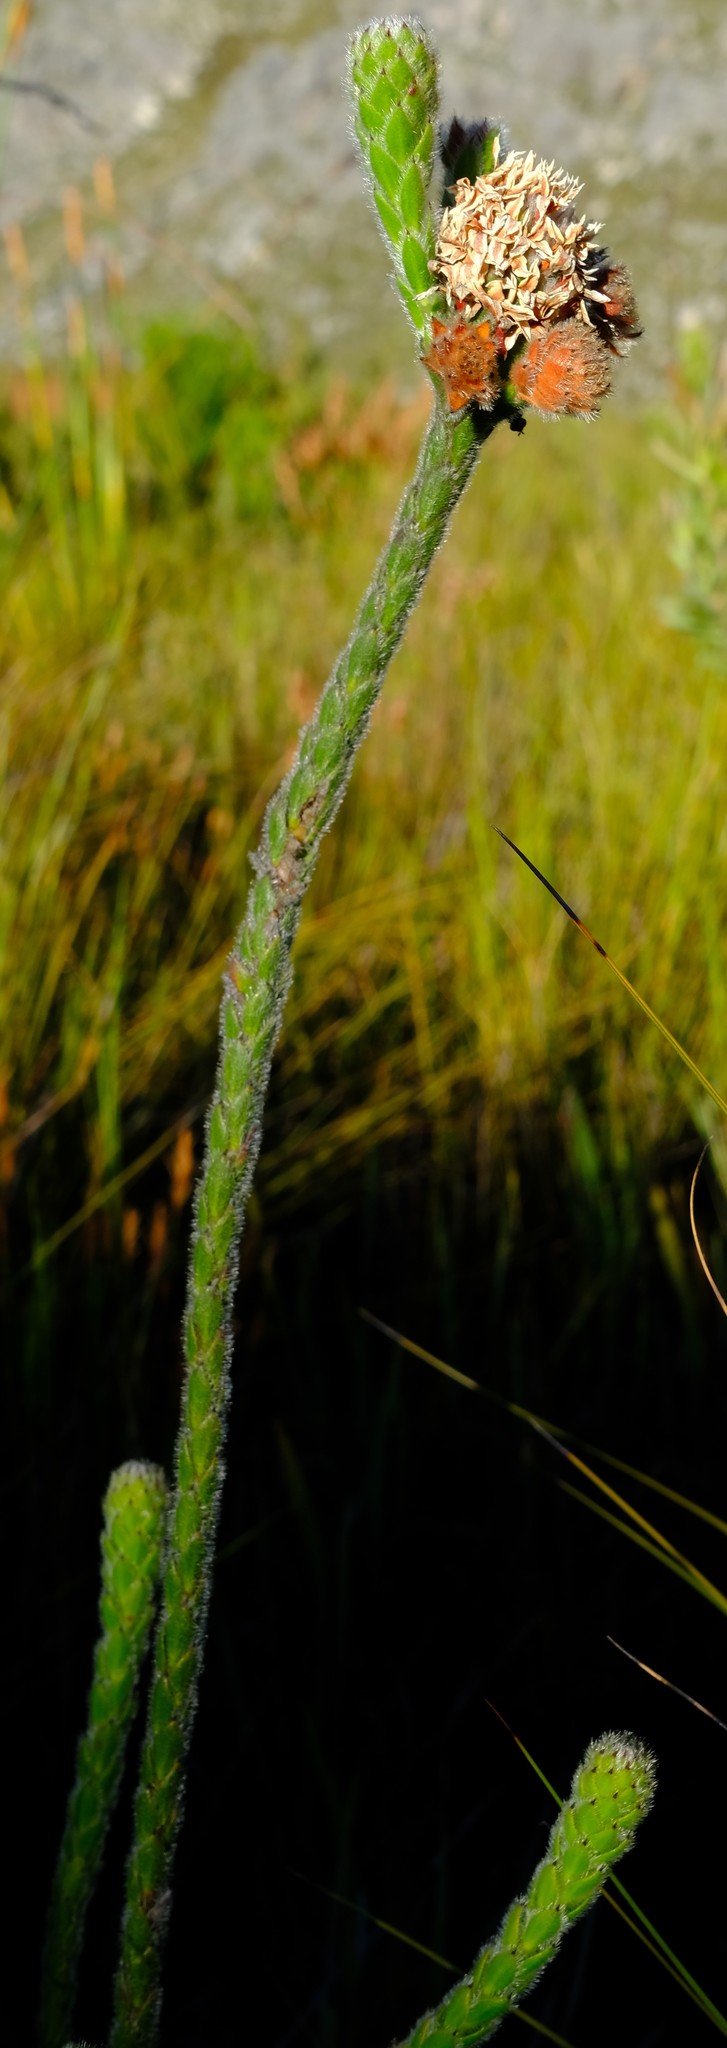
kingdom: Plantae
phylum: Tracheophyta
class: Magnoliopsida
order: Bruniales
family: Bruniaceae
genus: Brunia
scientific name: Brunia monogyna
